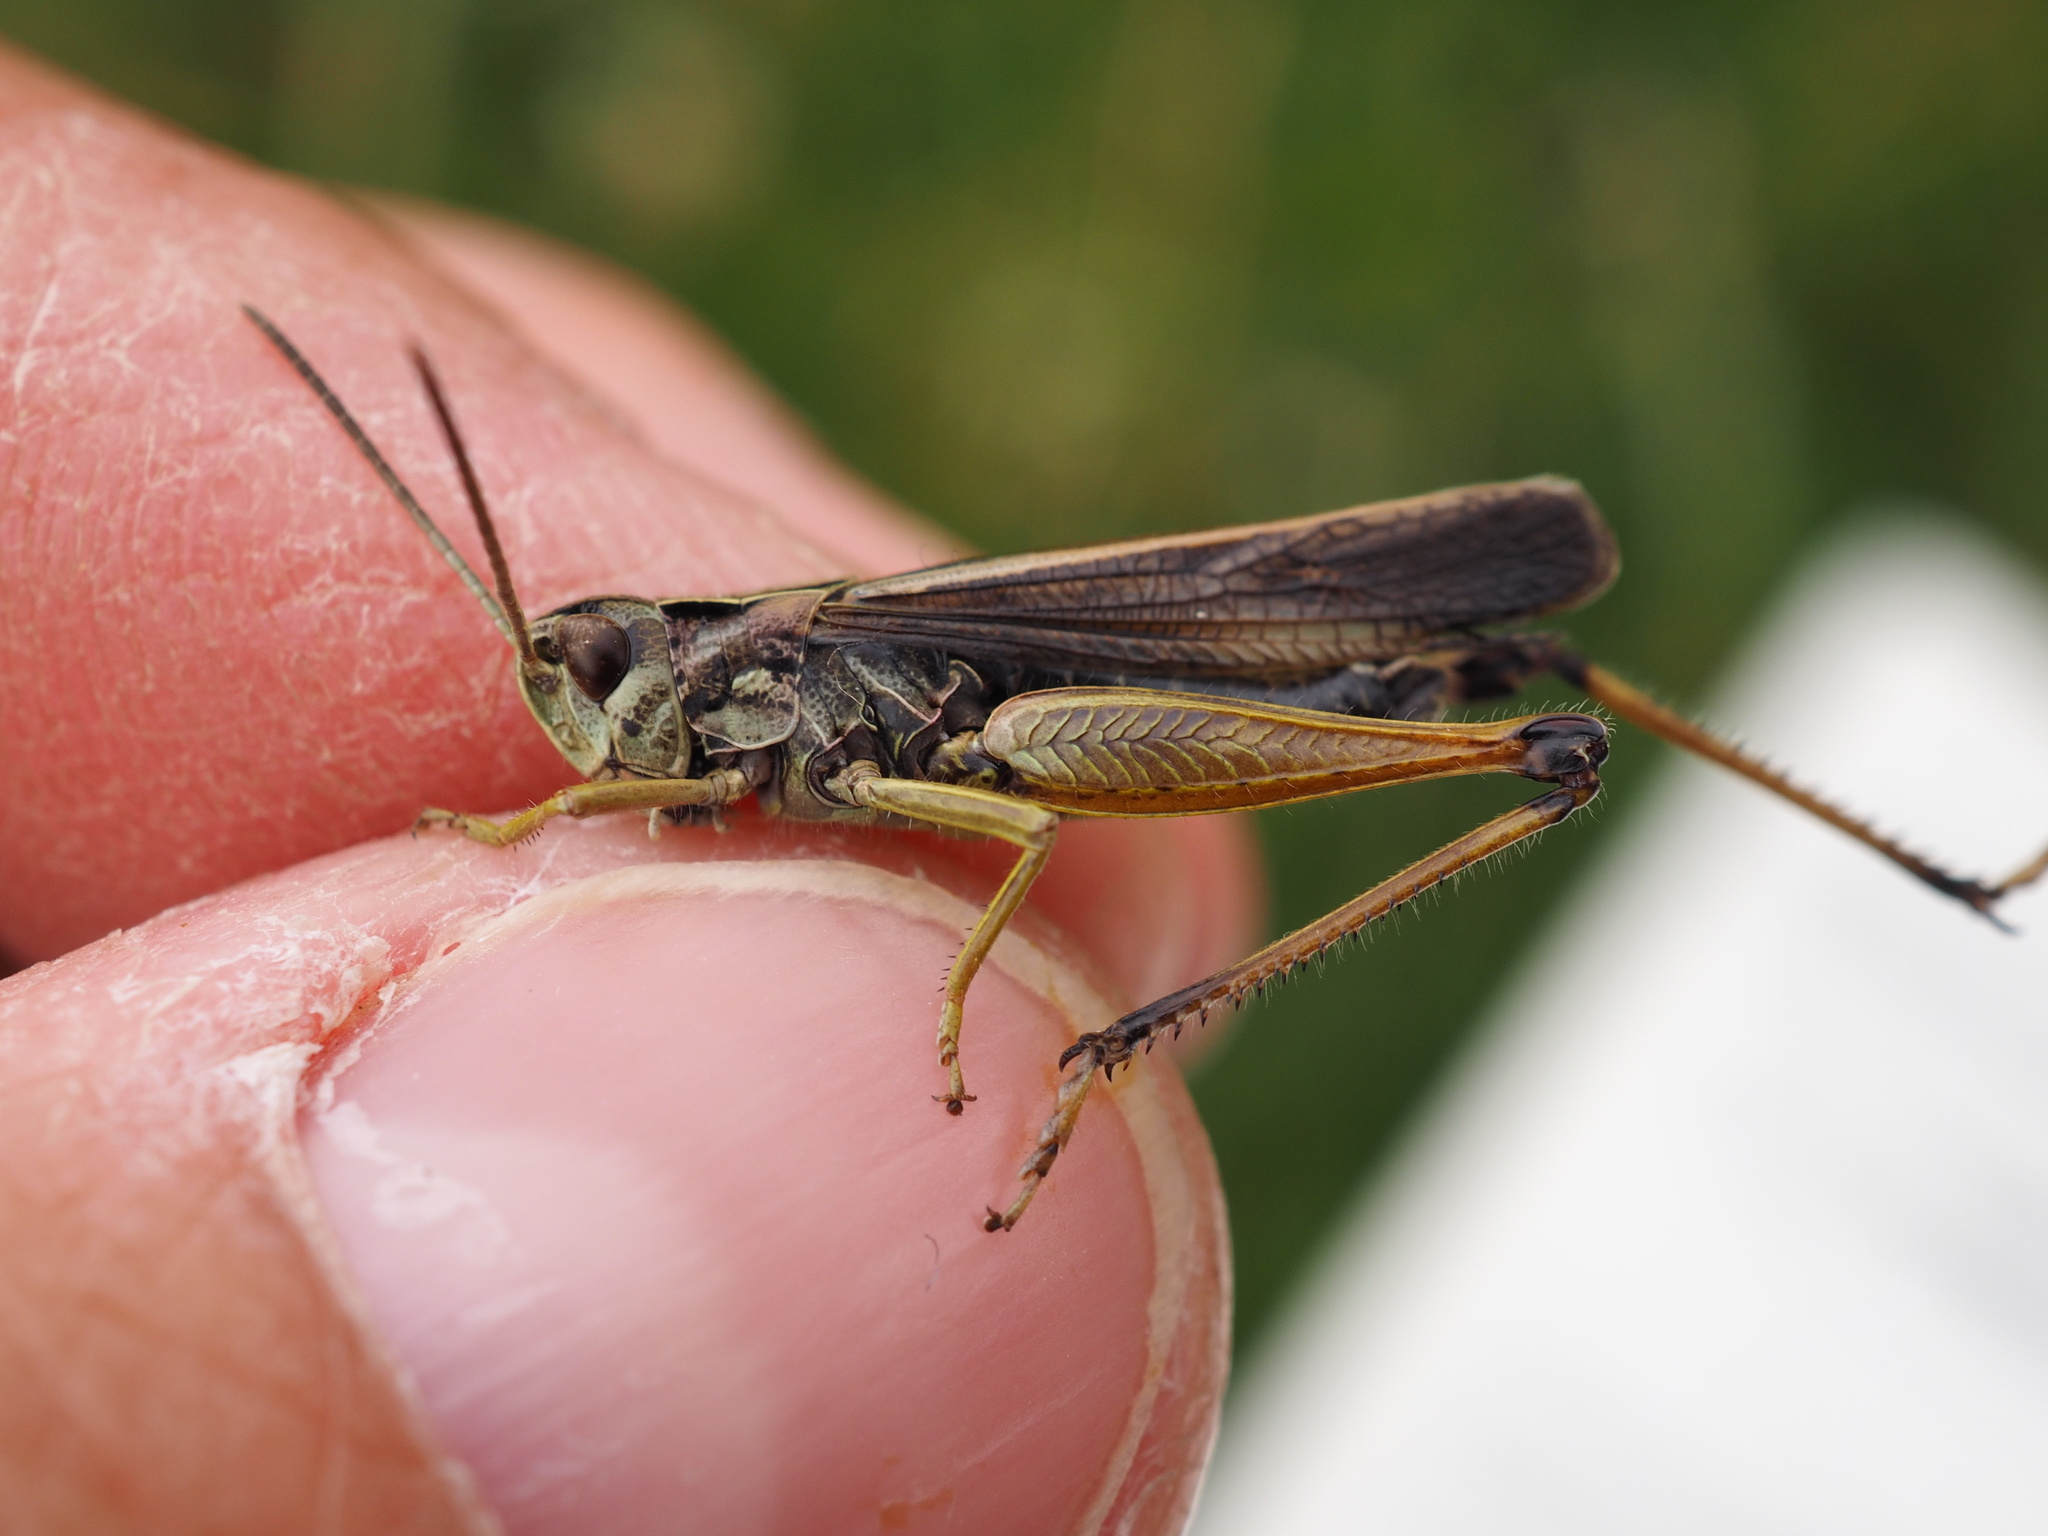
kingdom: Animalia
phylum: Arthropoda
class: Insecta
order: Orthoptera
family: Acrididae
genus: Omocestus
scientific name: Omocestus viridulus
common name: Common green grasshopper
